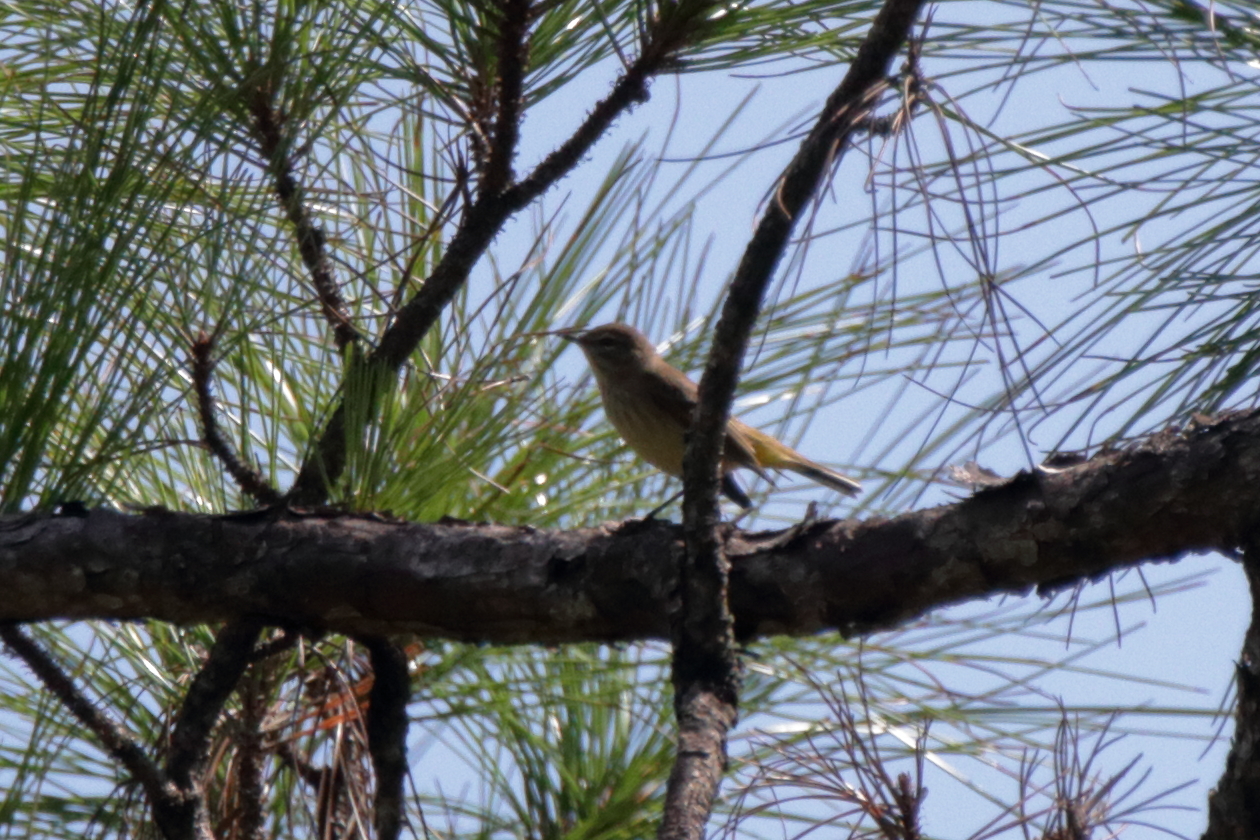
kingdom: Animalia
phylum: Chordata
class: Aves
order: Passeriformes
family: Parulidae
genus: Setophaga
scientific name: Setophaga palmarum
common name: Palm warbler
